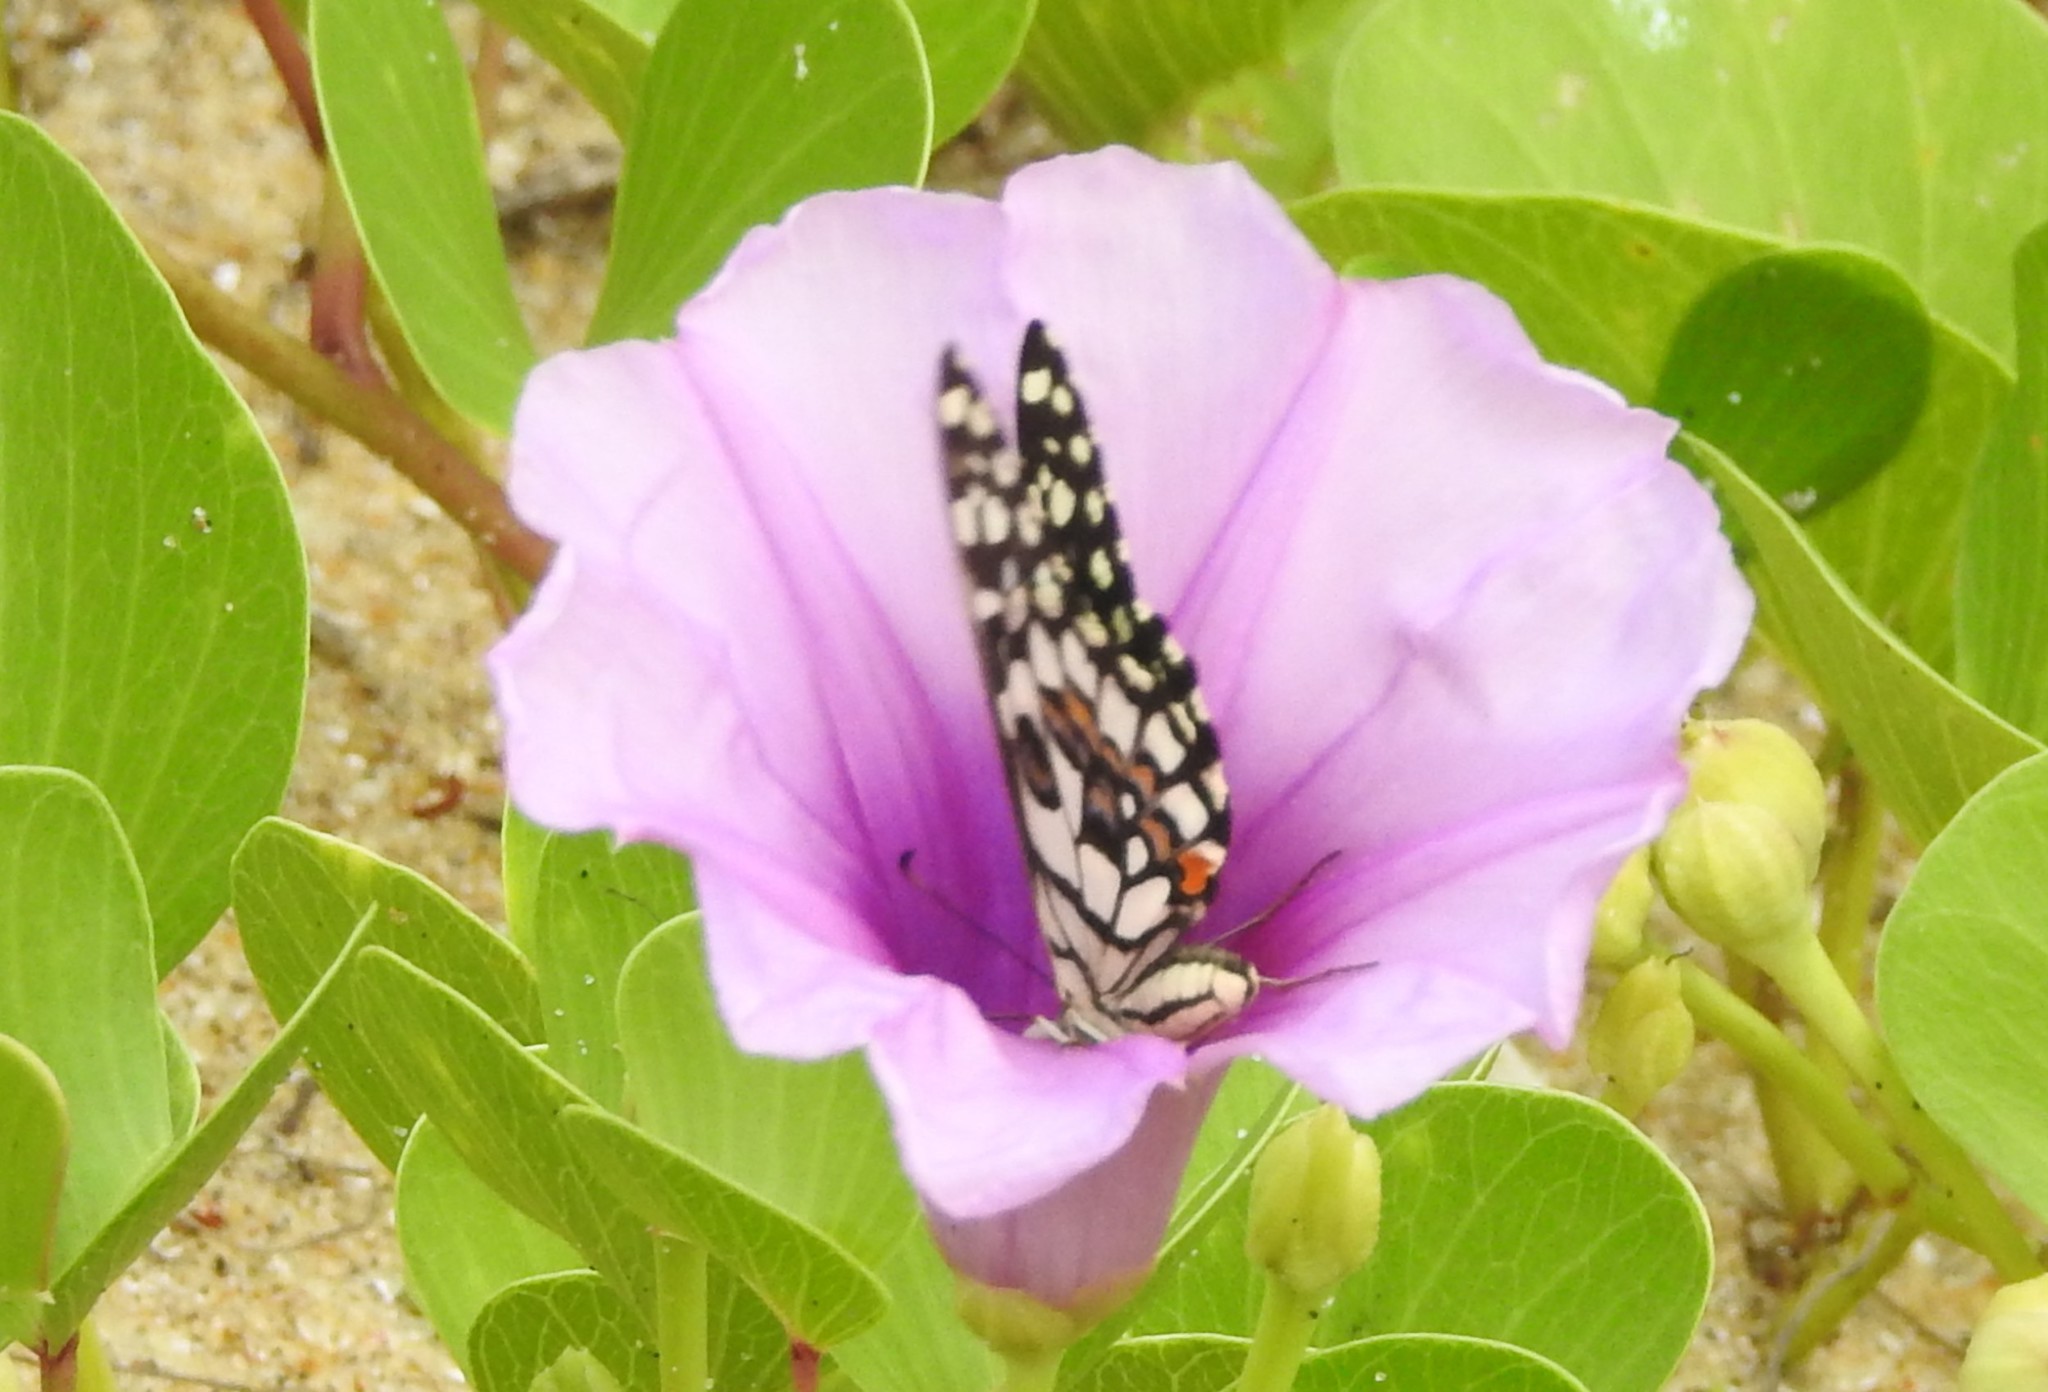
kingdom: Animalia
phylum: Arthropoda
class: Insecta
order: Lepidoptera
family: Papilionidae
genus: Papilio
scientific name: Papilio demoleus
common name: Lime butterfly
